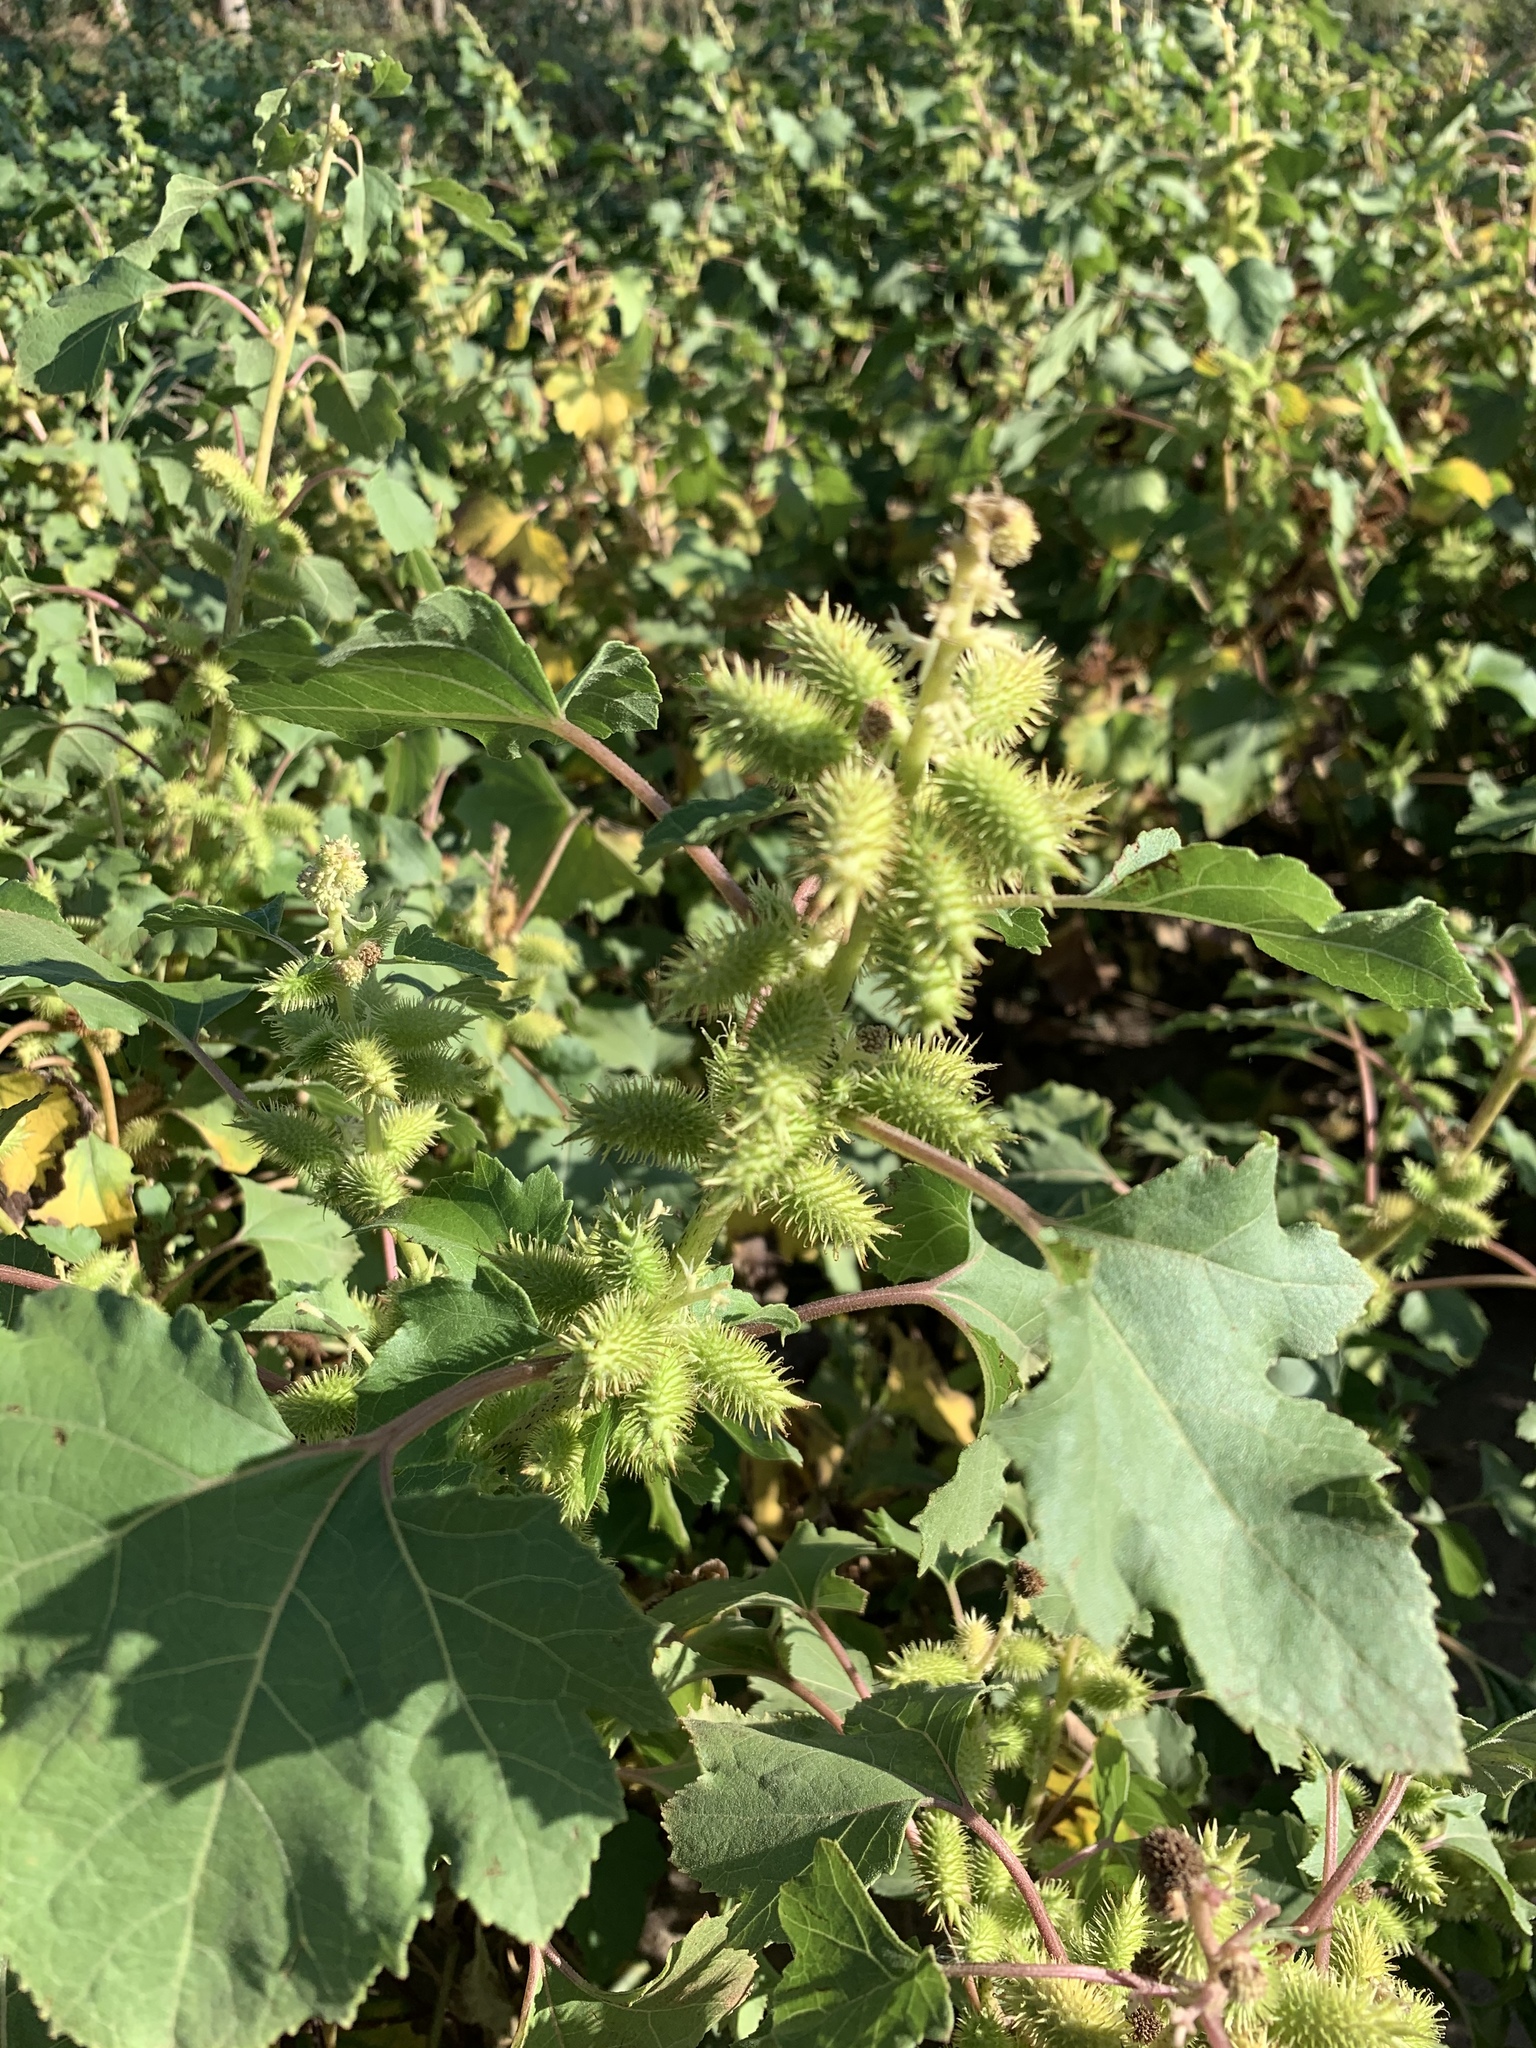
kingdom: Plantae
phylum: Tracheophyta
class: Magnoliopsida
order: Asterales
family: Asteraceae
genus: Xanthium
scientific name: Xanthium strumarium
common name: Rough cocklebur
